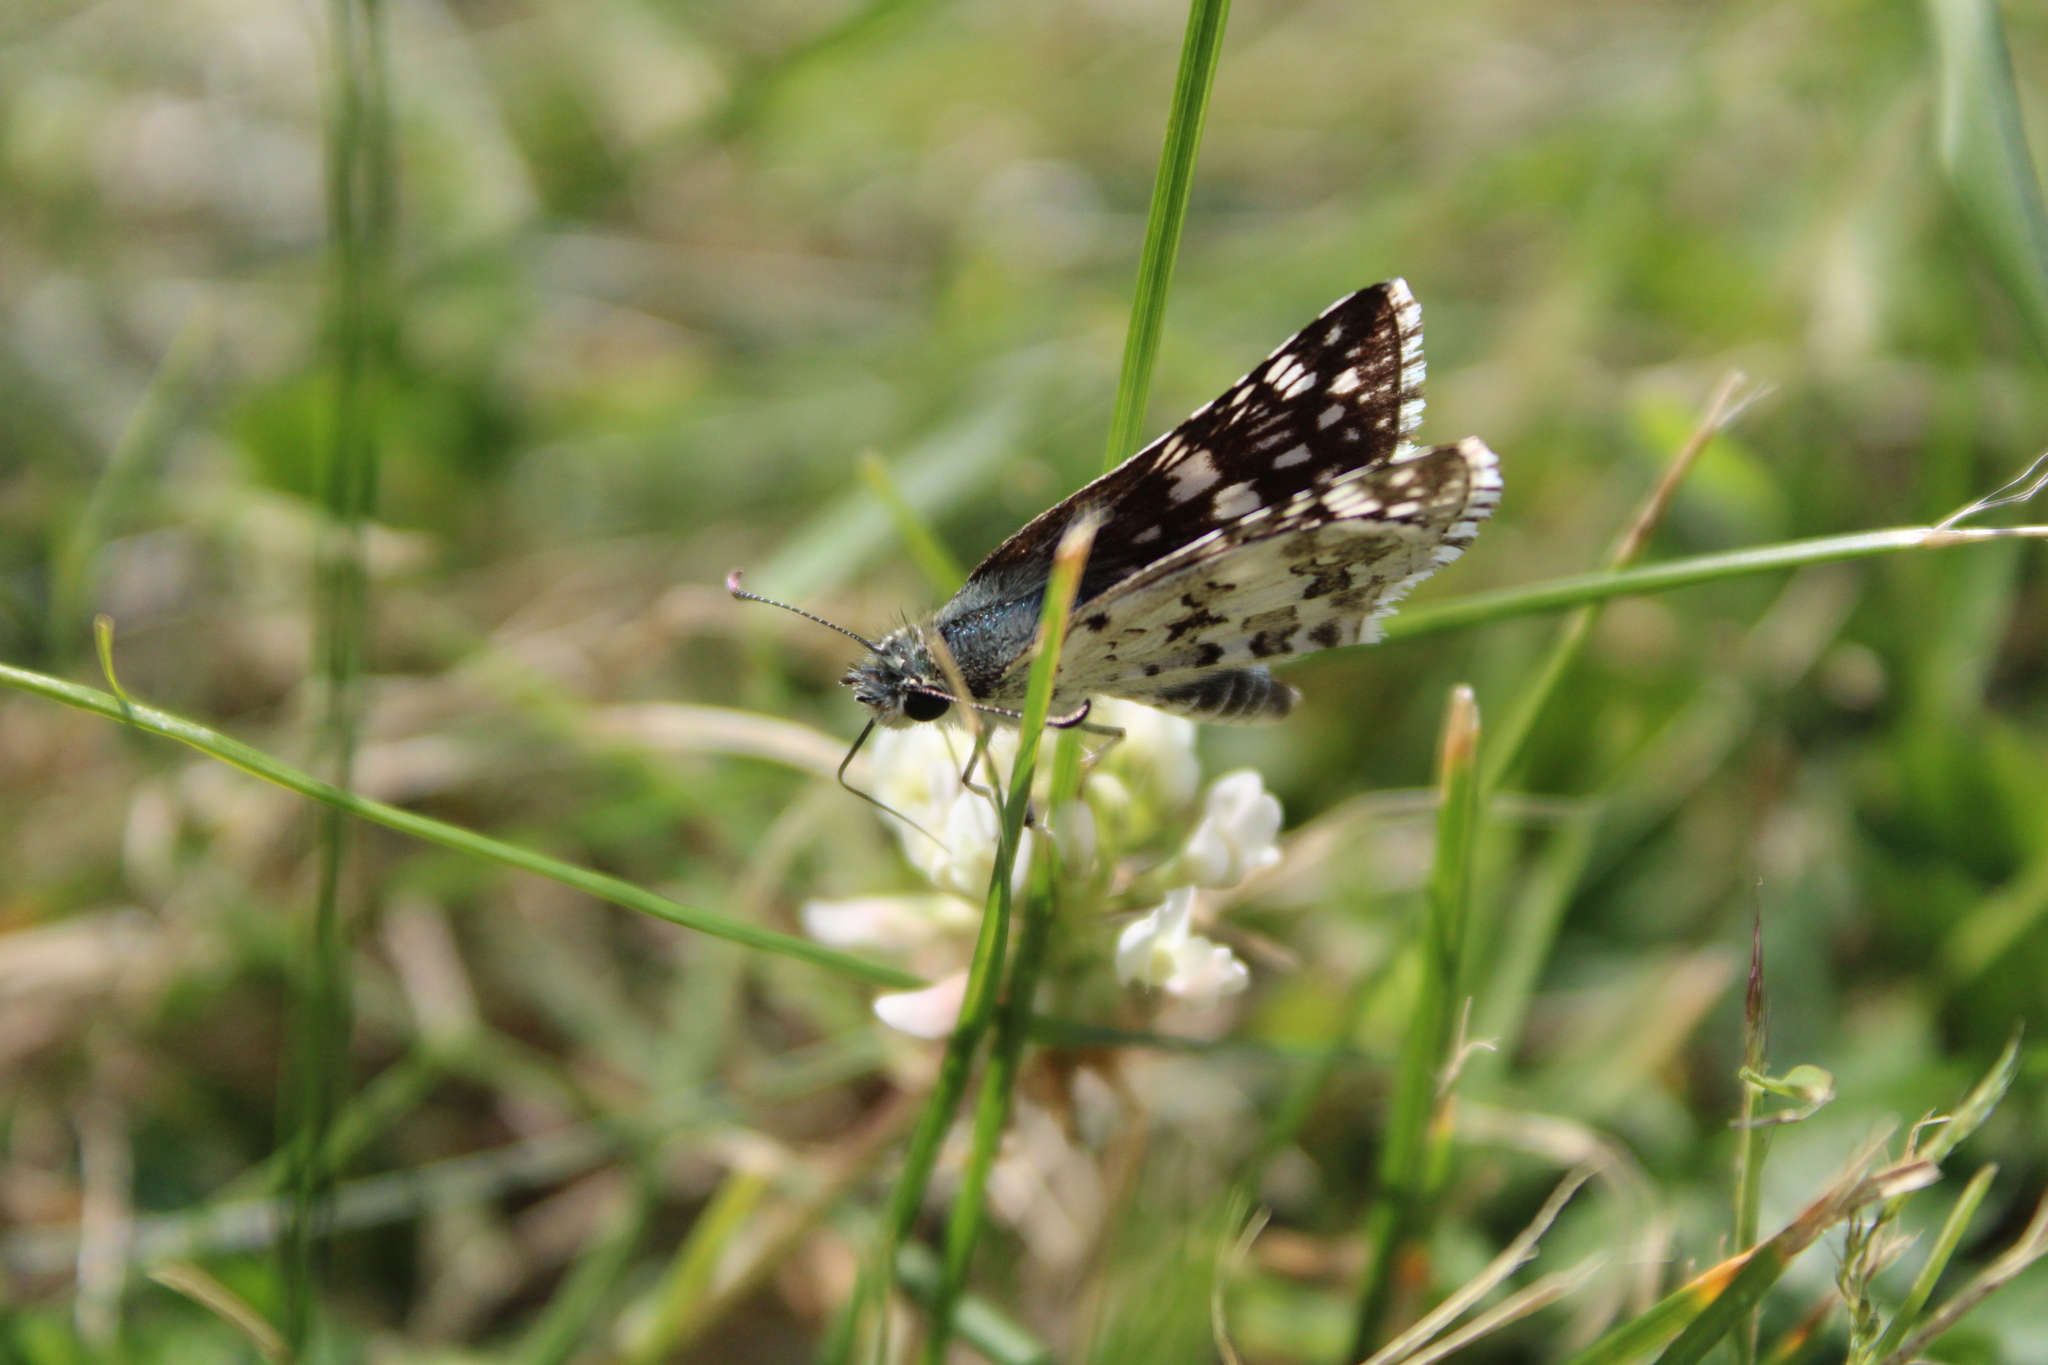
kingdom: Animalia
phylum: Arthropoda
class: Insecta
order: Lepidoptera
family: Hesperiidae
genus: Burnsius
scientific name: Burnsius communis
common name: Common checkered-skipper
